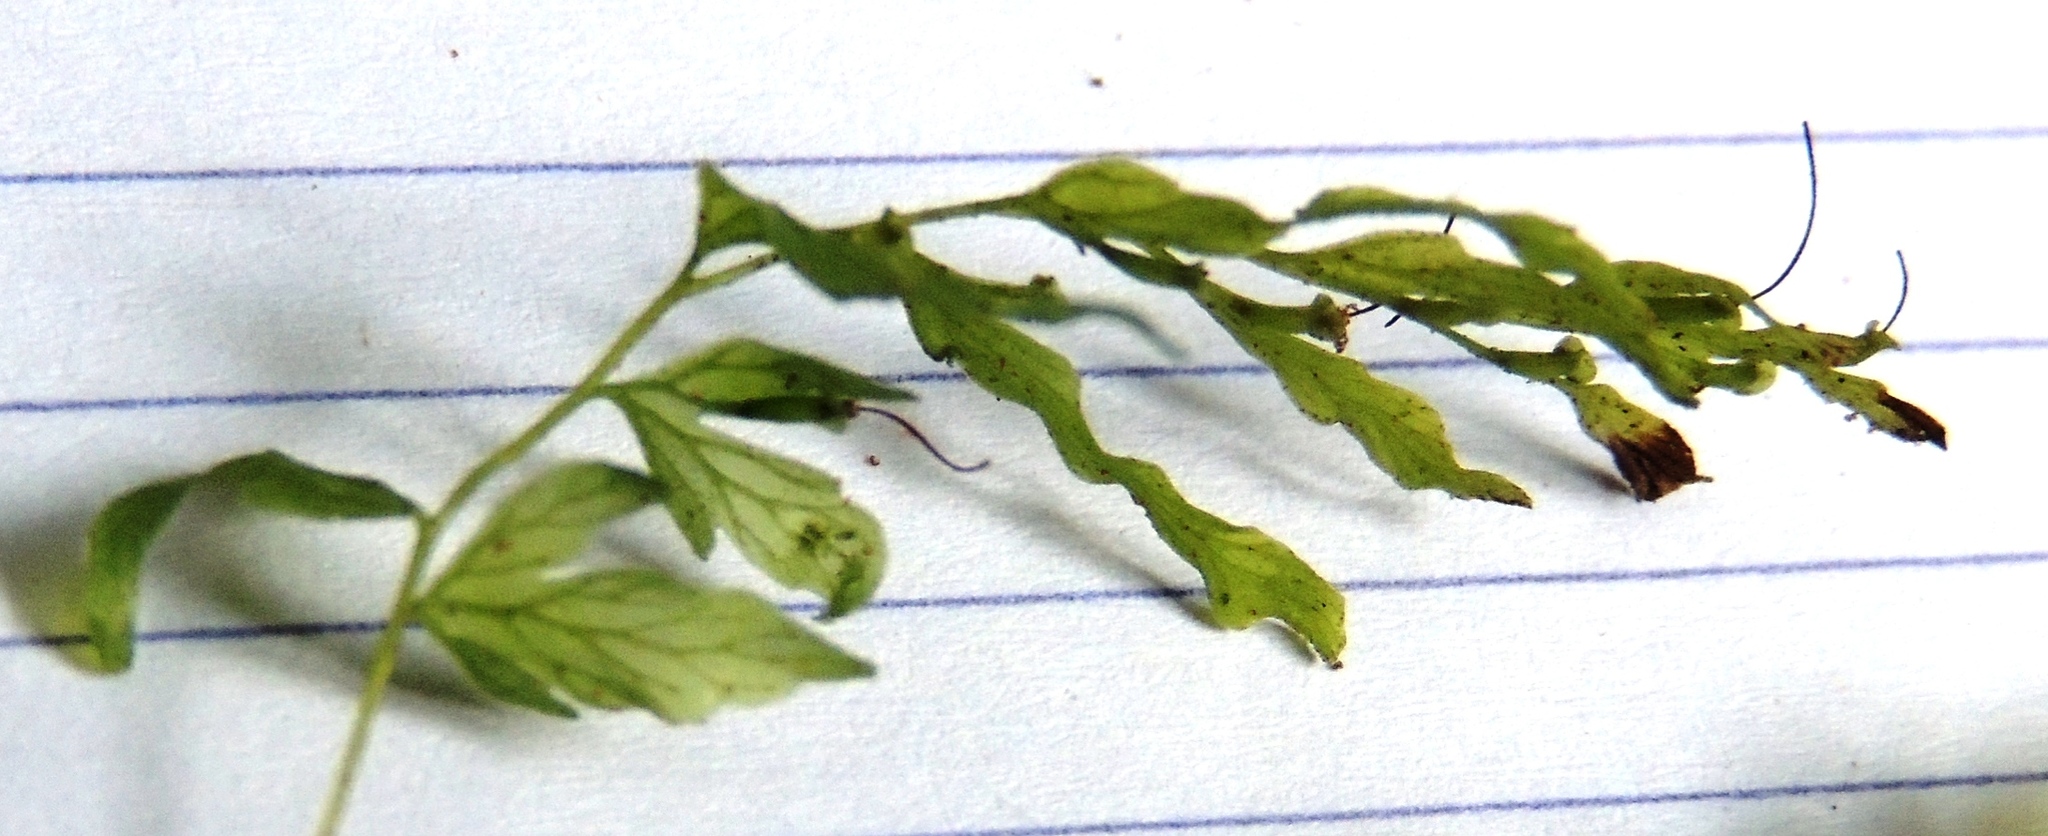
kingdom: Plantae
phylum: Tracheophyta
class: Polypodiopsida
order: Hymenophyllales
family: Hymenophyllaceae
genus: Polyphlebium
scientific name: Polyphlebium venosum
